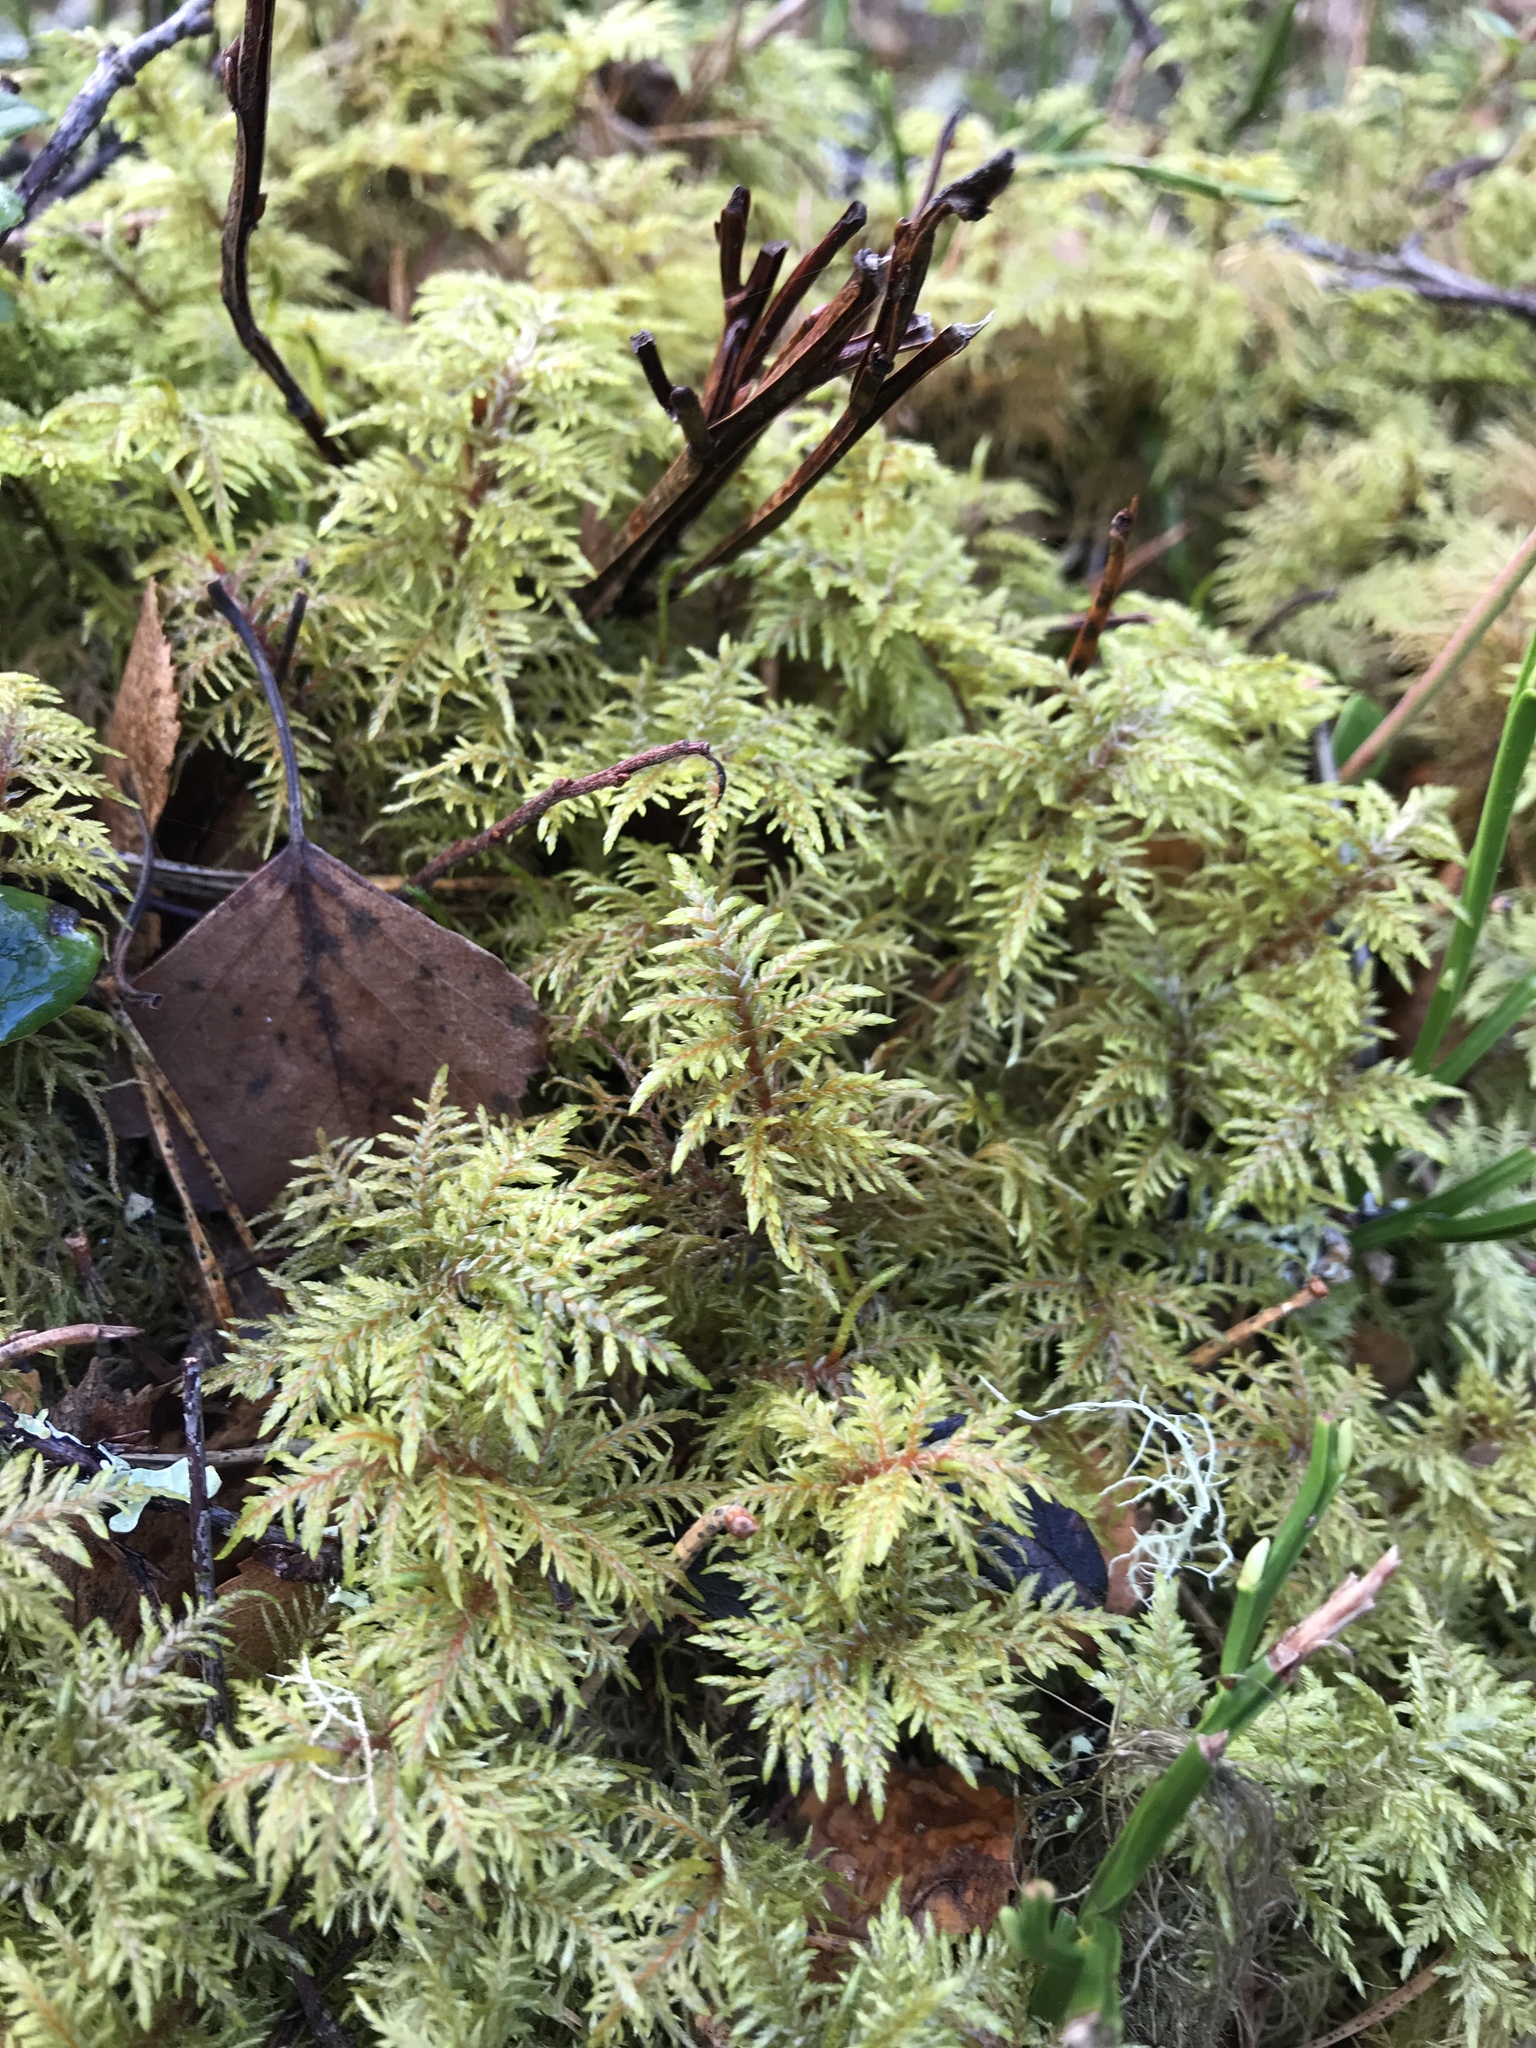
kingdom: Plantae
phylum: Bryophyta
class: Bryopsida
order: Hypnales
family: Hylocomiaceae
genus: Hylocomium
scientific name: Hylocomium splendens
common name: Stairstep moss
